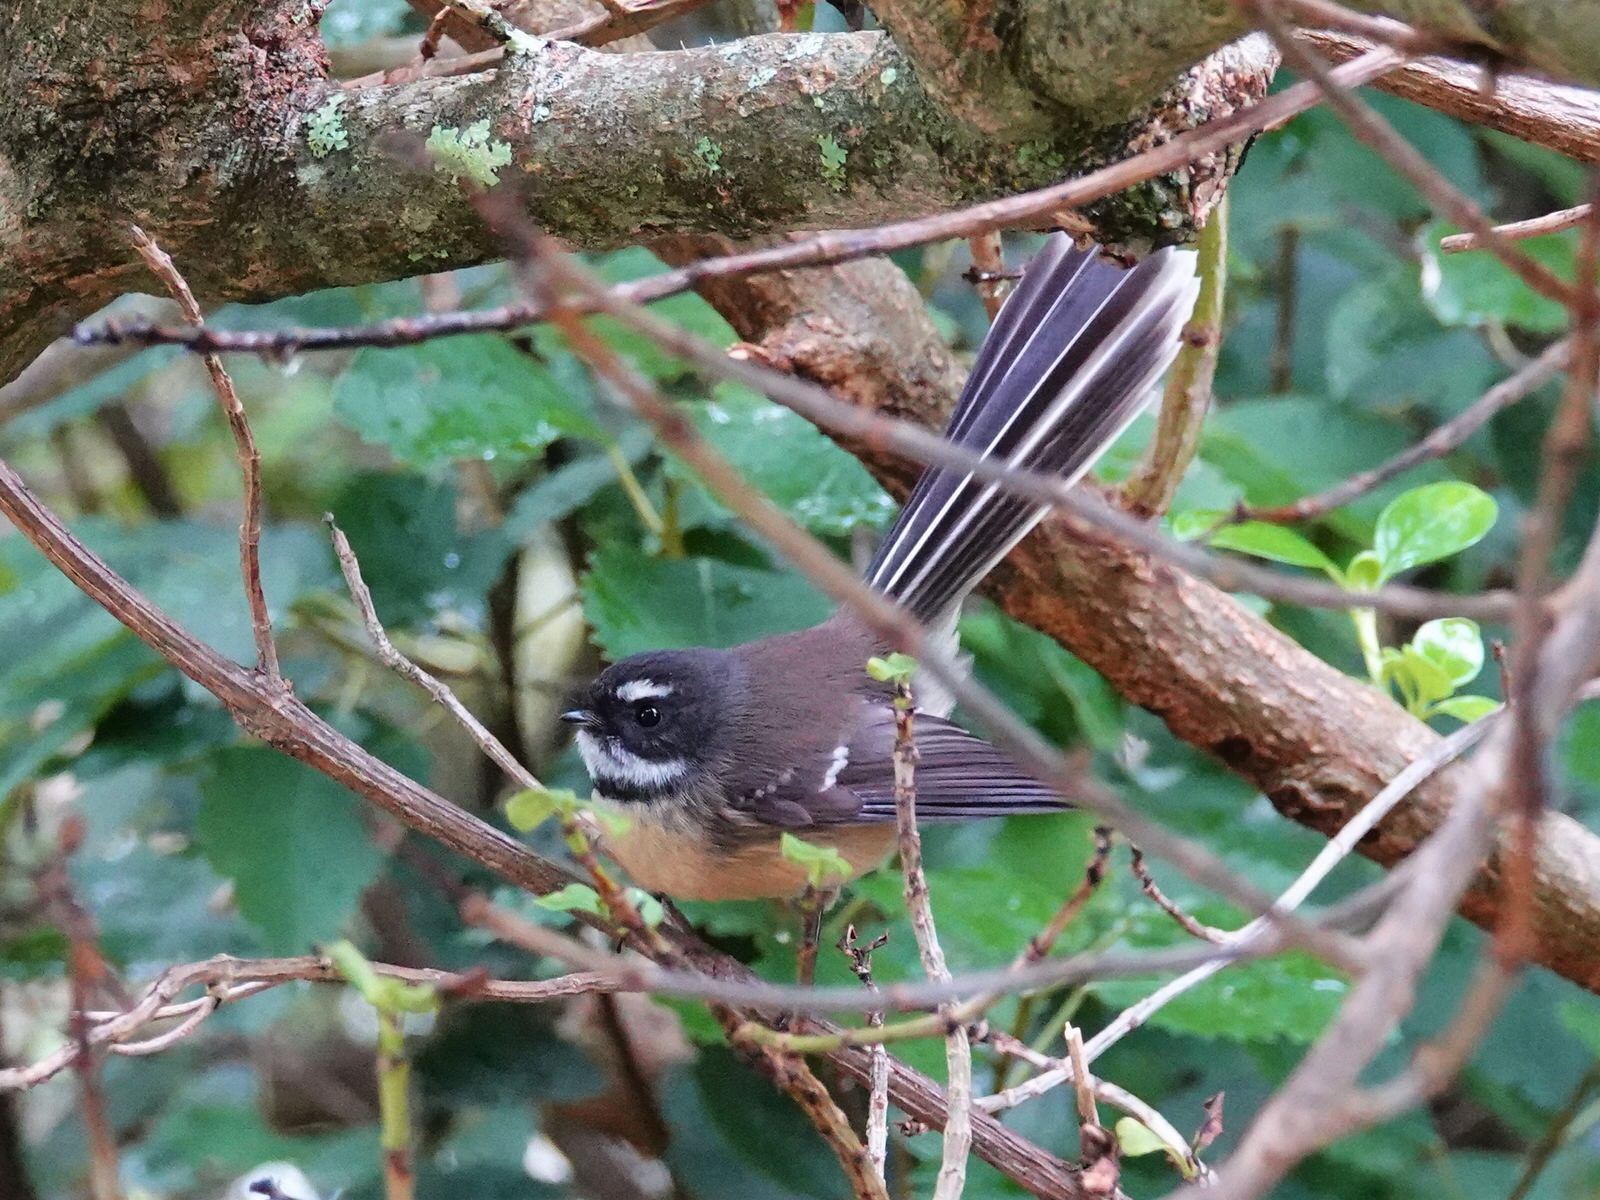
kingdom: Animalia
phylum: Chordata
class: Aves
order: Passeriformes
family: Rhipiduridae
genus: Rhipidura
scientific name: Rhipidura fuliginosa
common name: New zealand fantail
